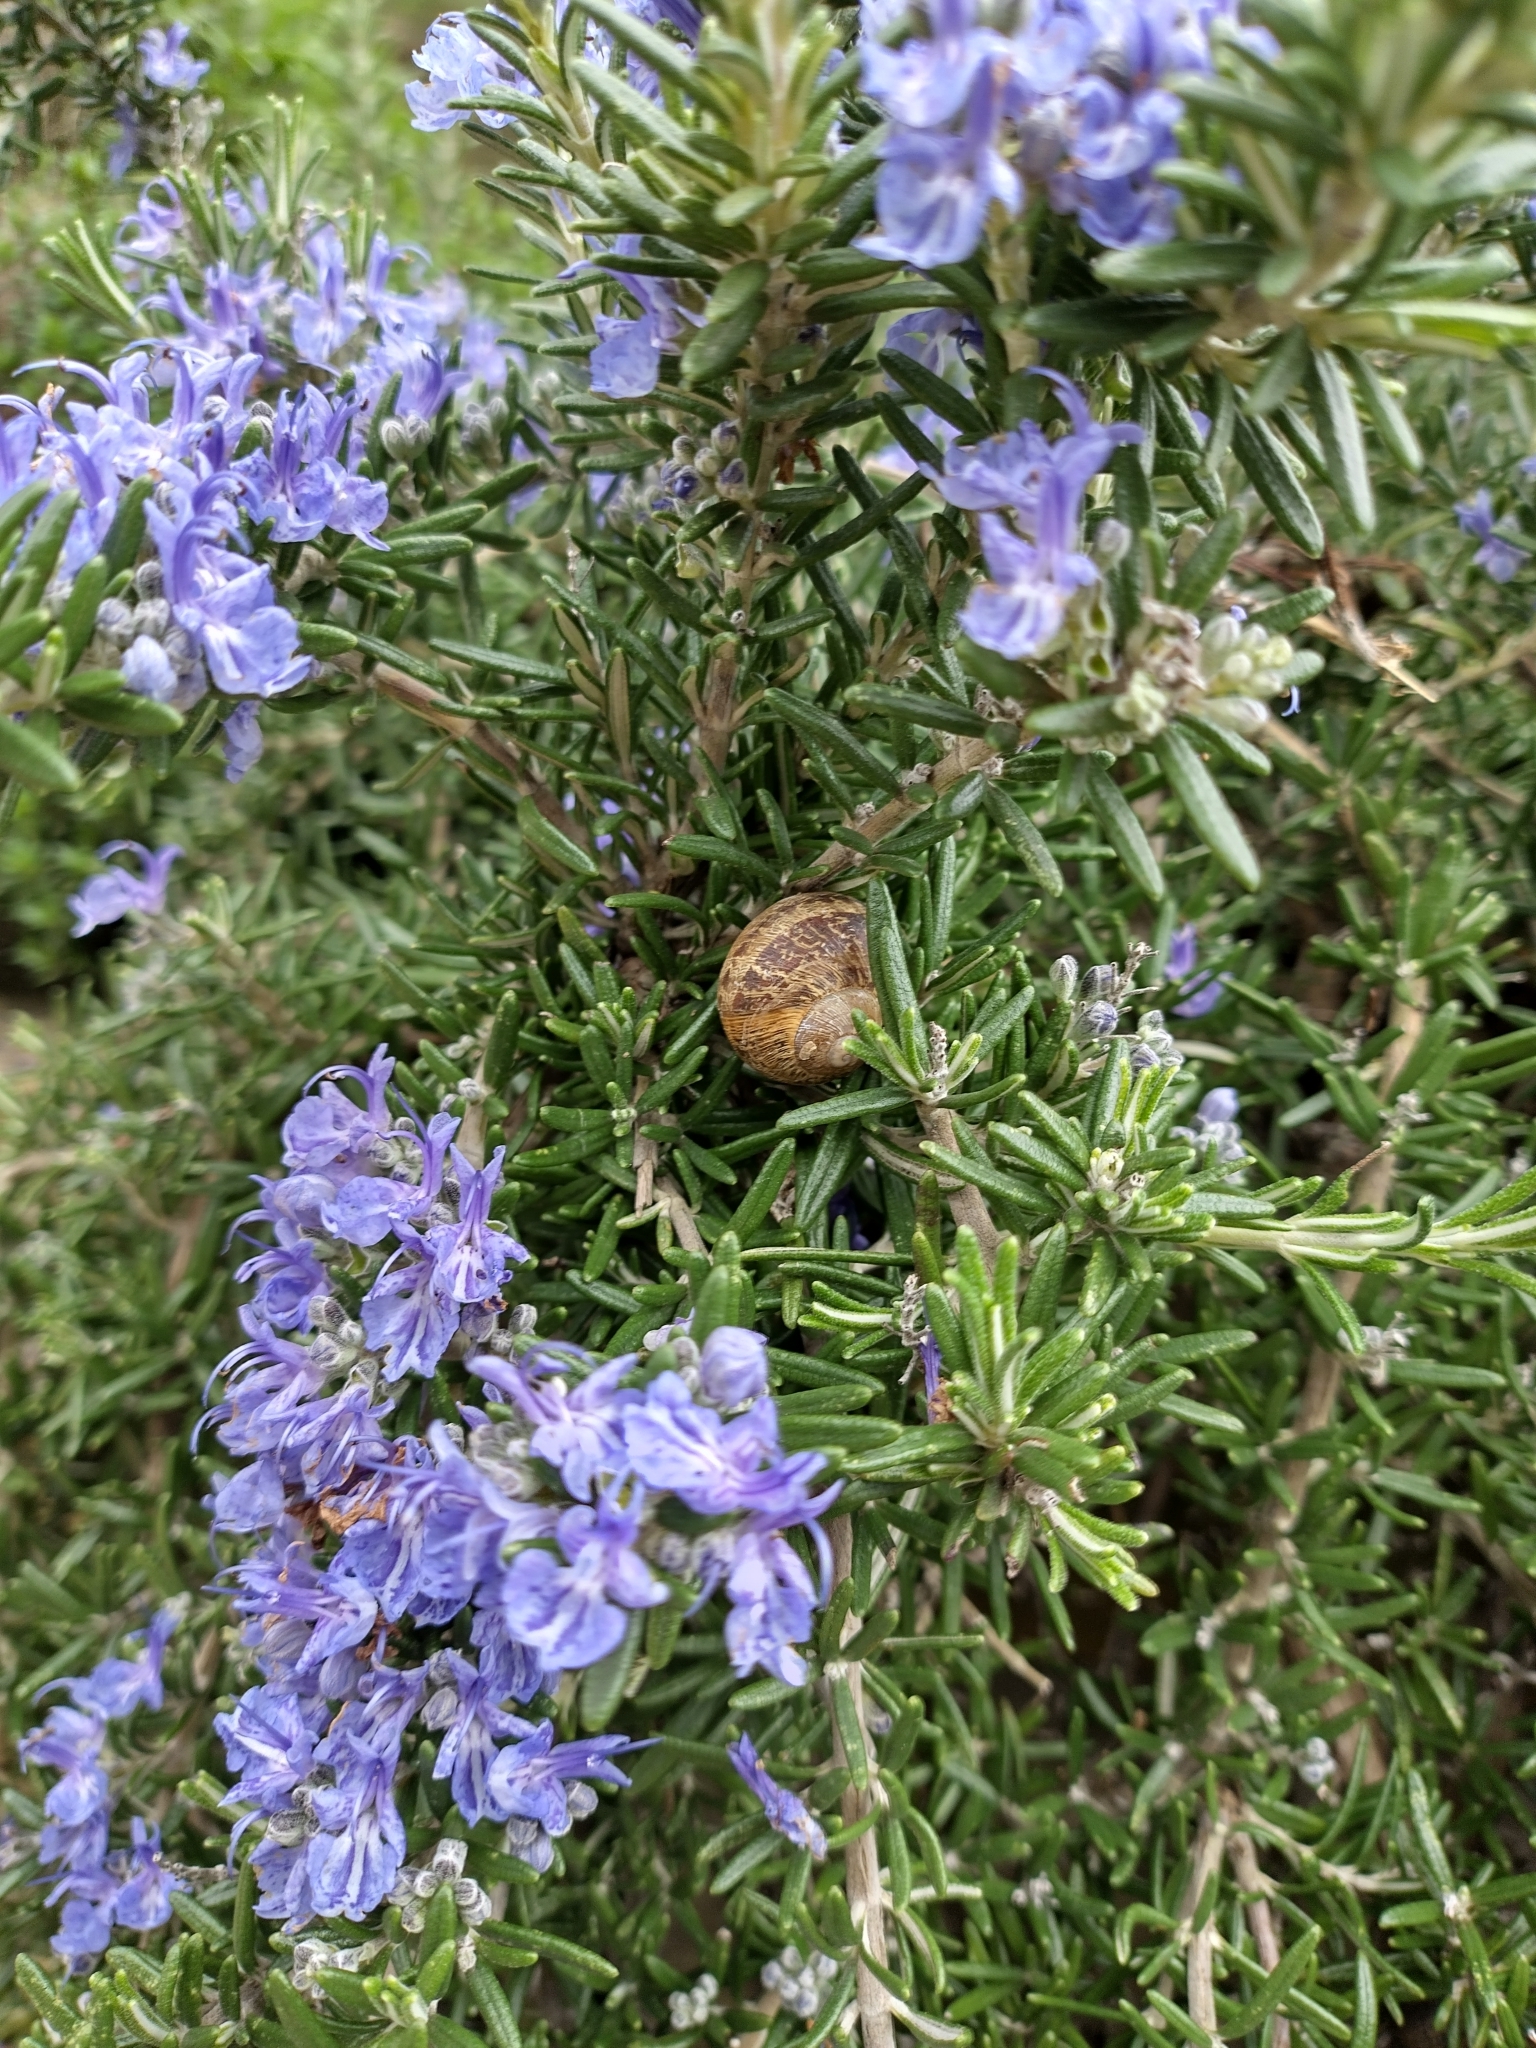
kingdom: Animalia
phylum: Mollusca
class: Gastropoda
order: Stylommatophora
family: Helicidae
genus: Cornu
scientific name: Cornu aspersum
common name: Brown garden snail
